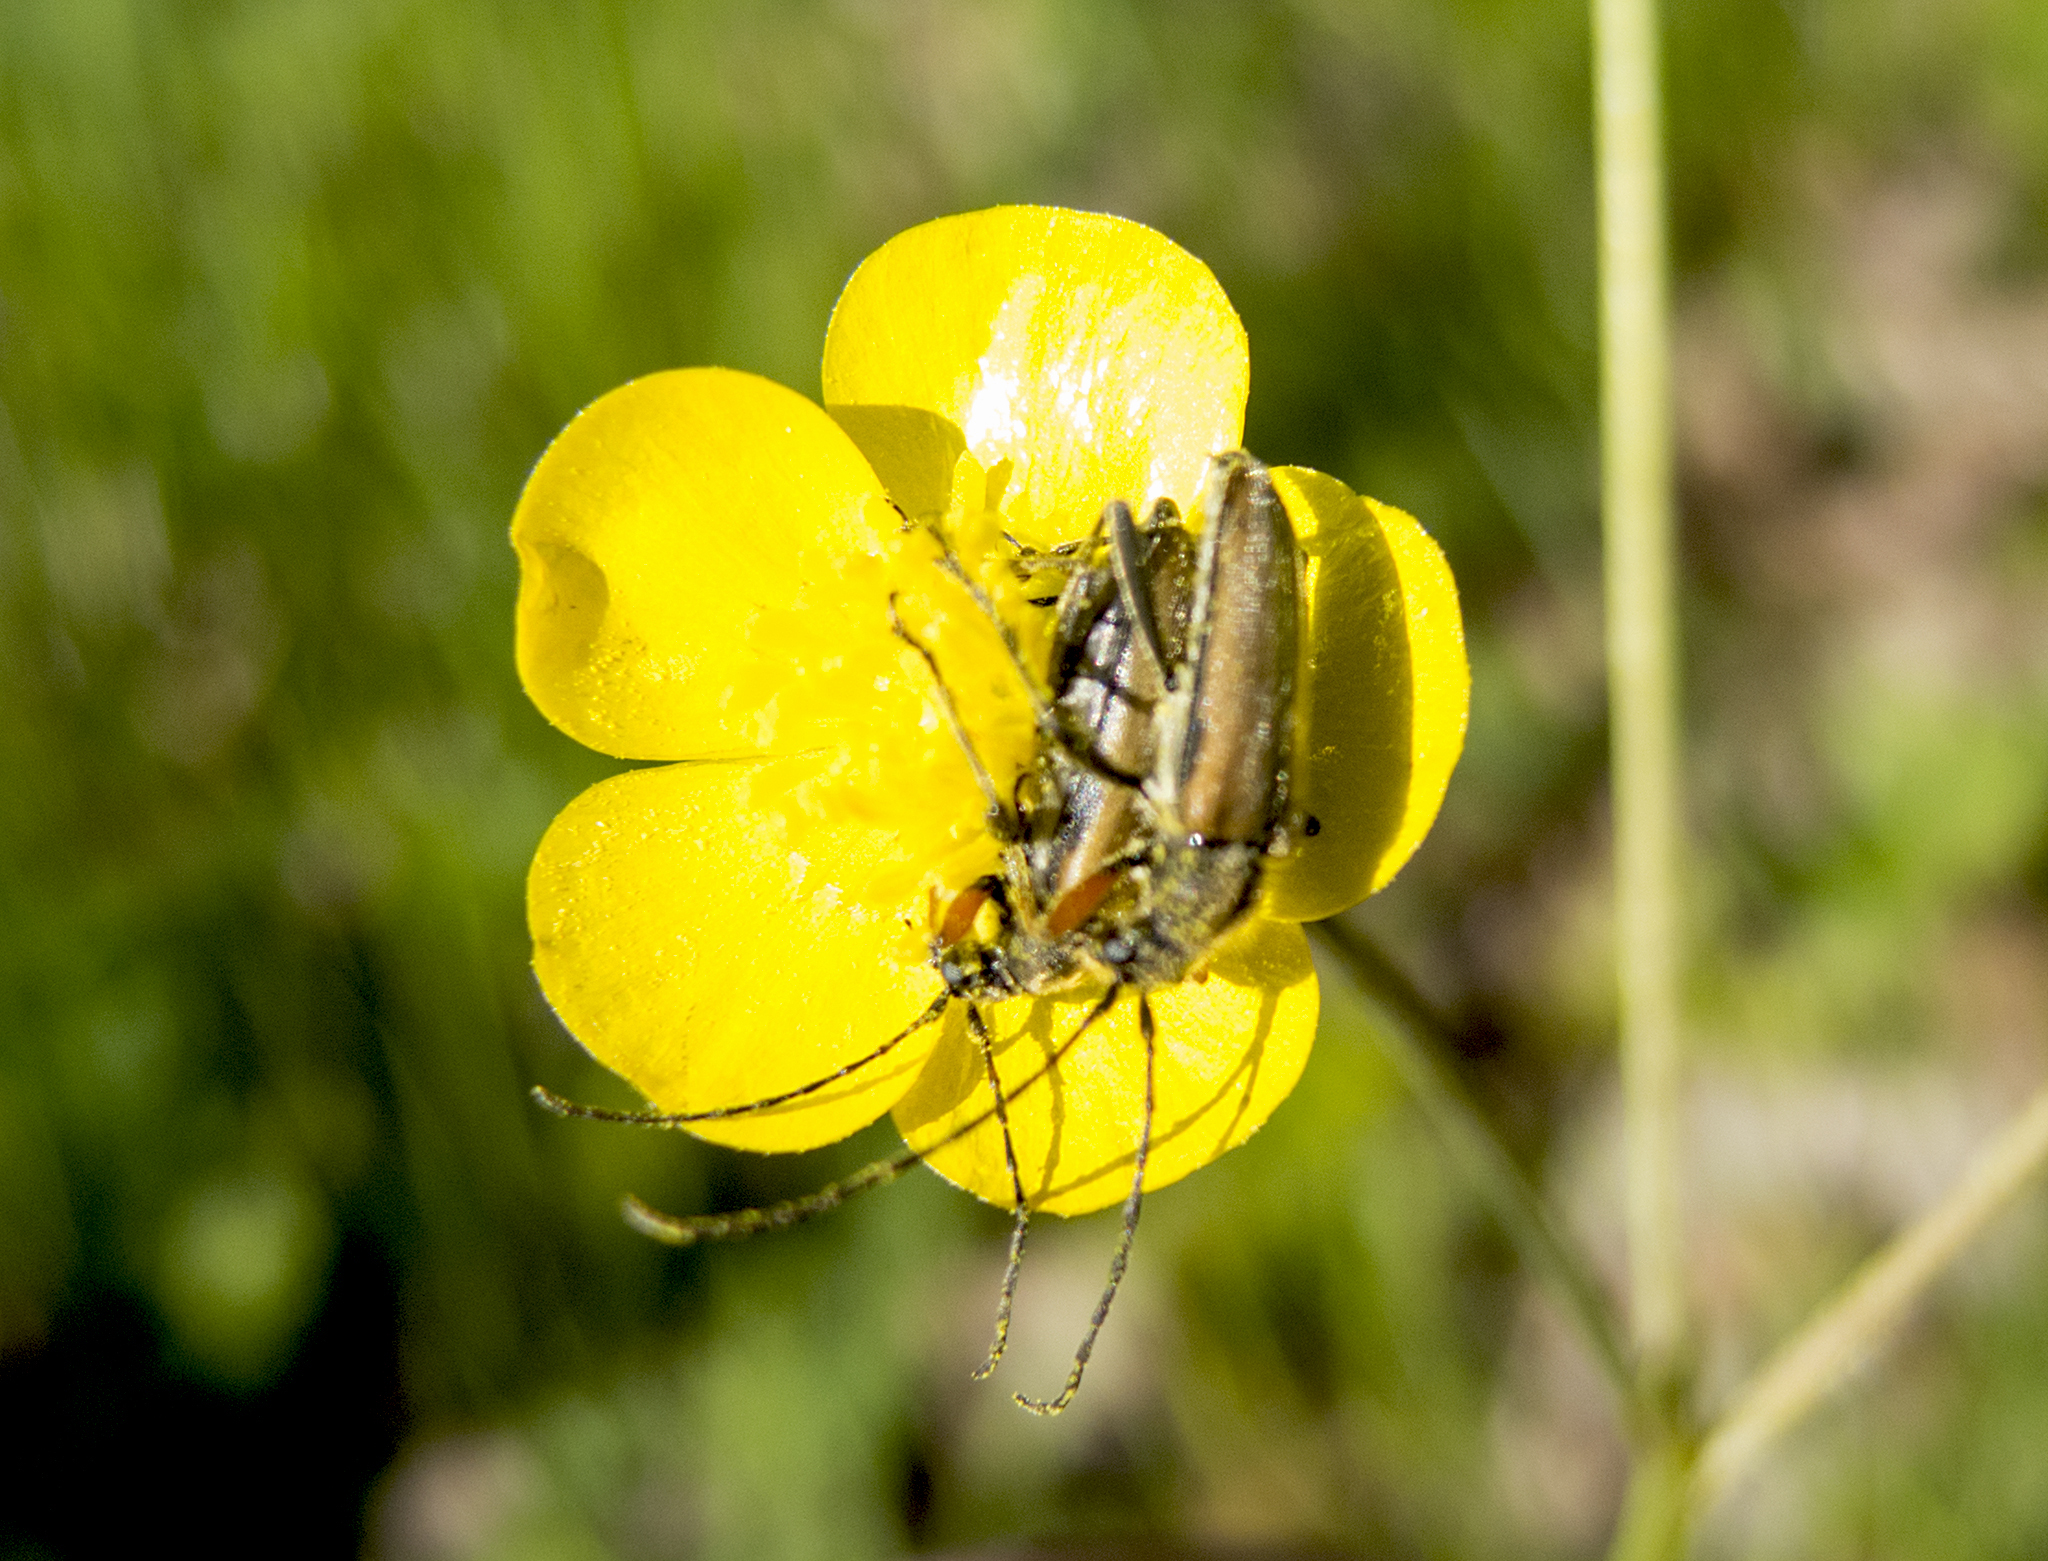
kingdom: Animalia
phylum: Arthropoda
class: Insecta
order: Coleoptera
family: Cerambycidae
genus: Cortodera
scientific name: Cortodera flavimana
